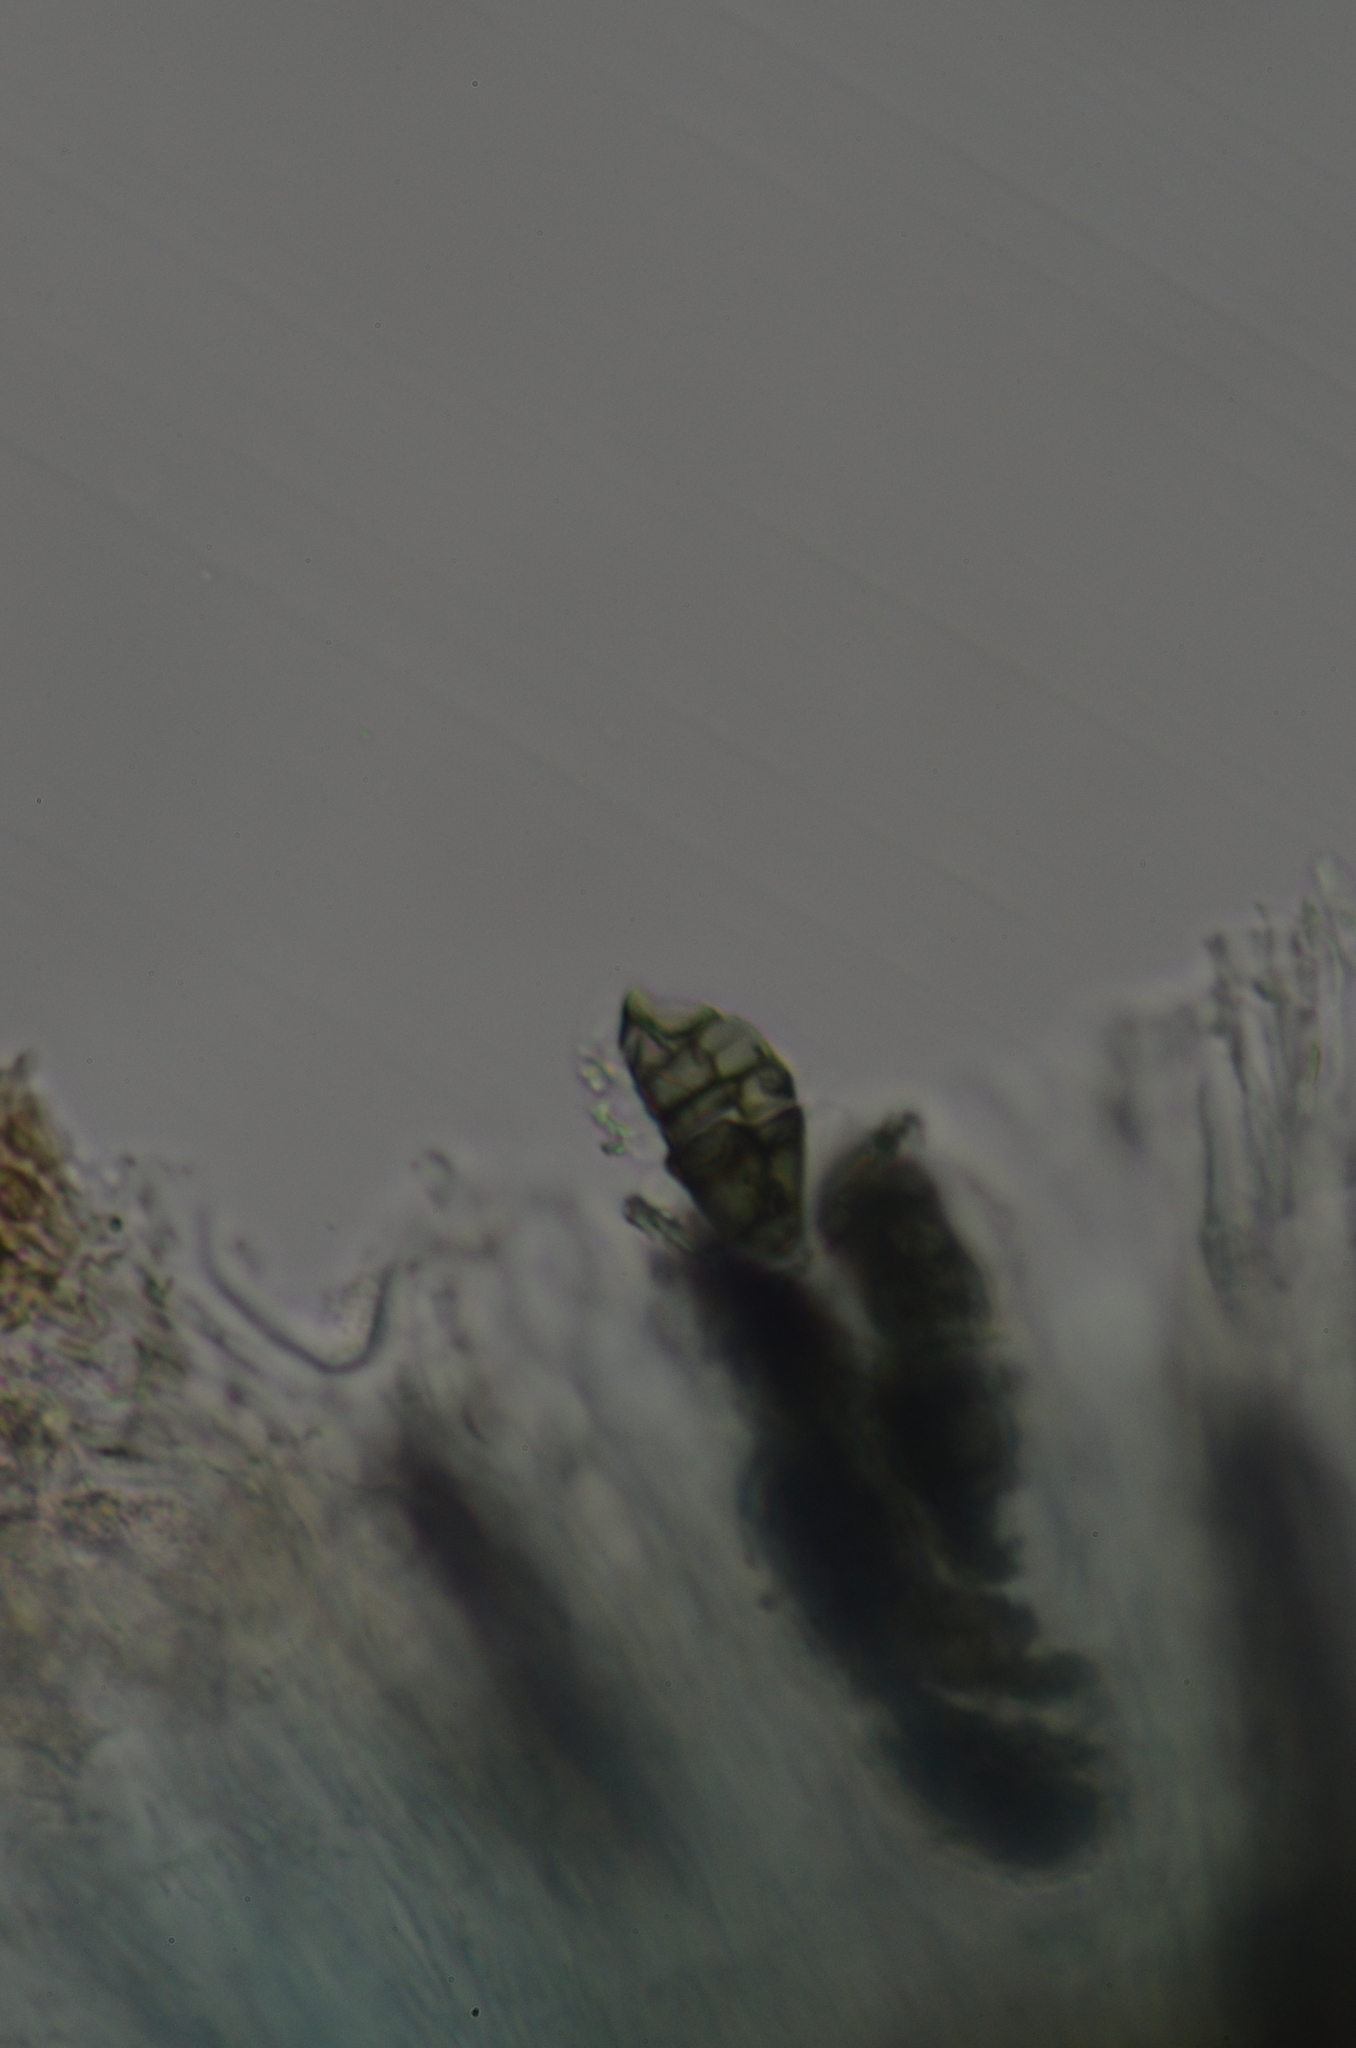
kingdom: Fungi
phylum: Ascomycota
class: Lecanoromycetes
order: Rhizocarpales
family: Rhizocarpaceae
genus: Rhizocarpon
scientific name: Rhizocarpon geographicum
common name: Yellow map lichen
